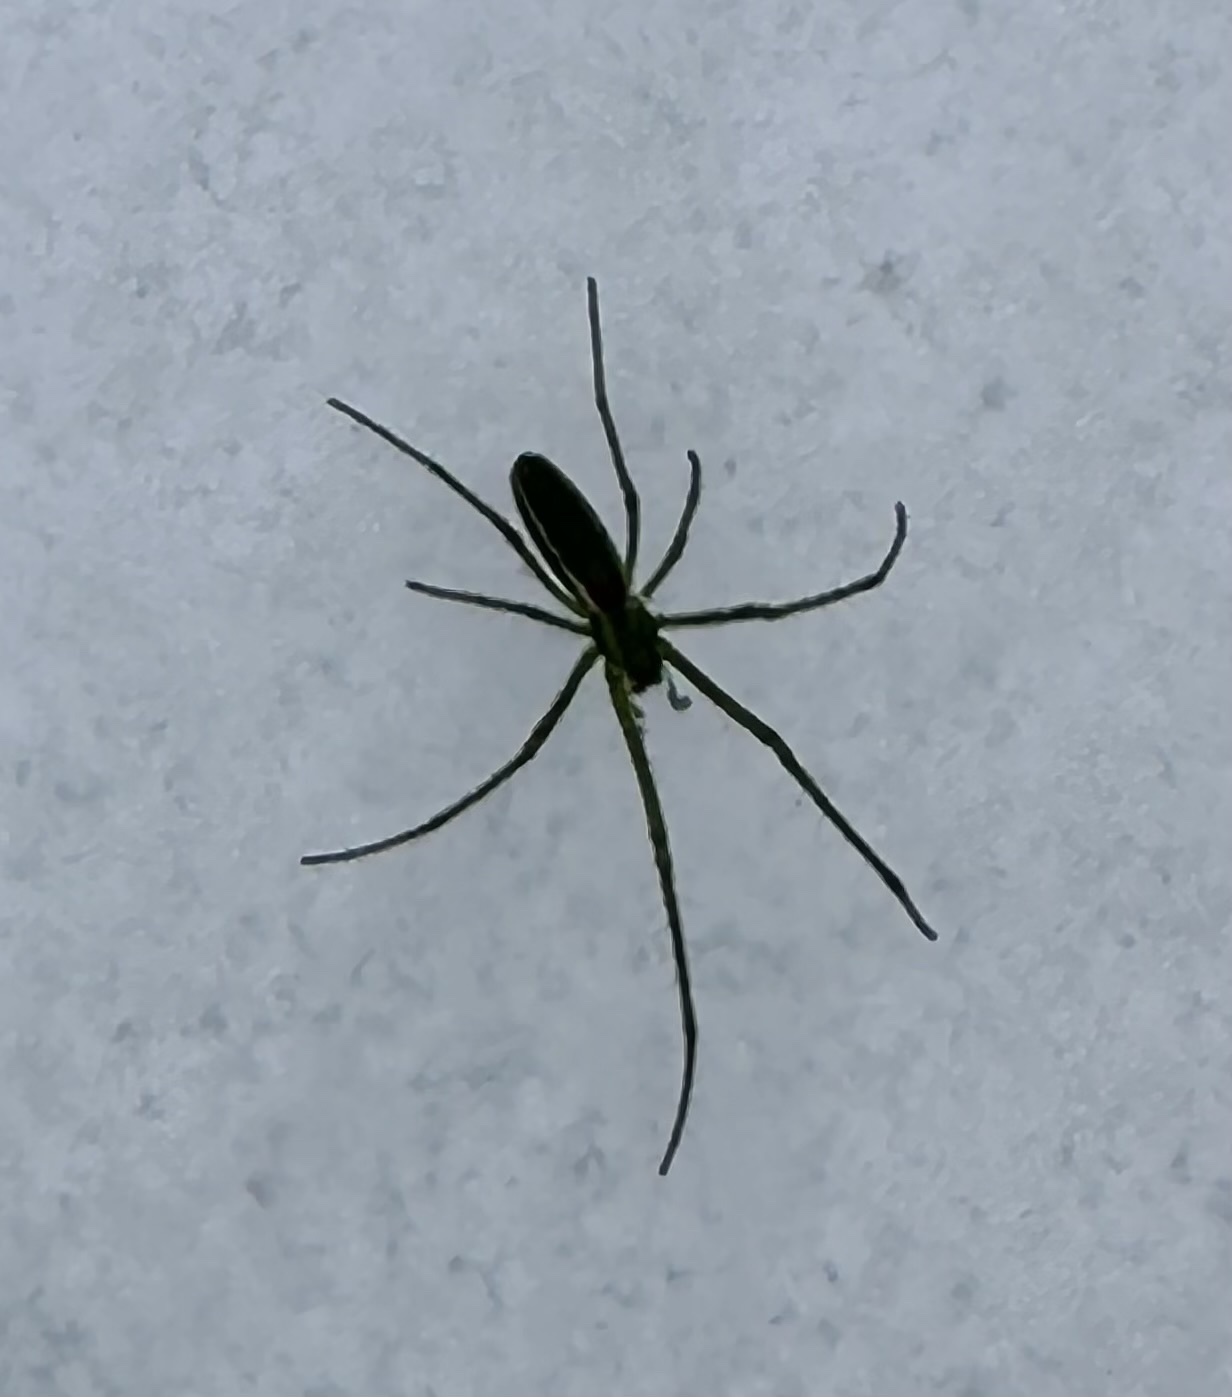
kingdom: Animalia
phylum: Arthropoda
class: Arachnida
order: Araneae
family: Tetragnathidae
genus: Tetragnatha
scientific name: Tetragnatha viridis
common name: Green long-jawed spider
